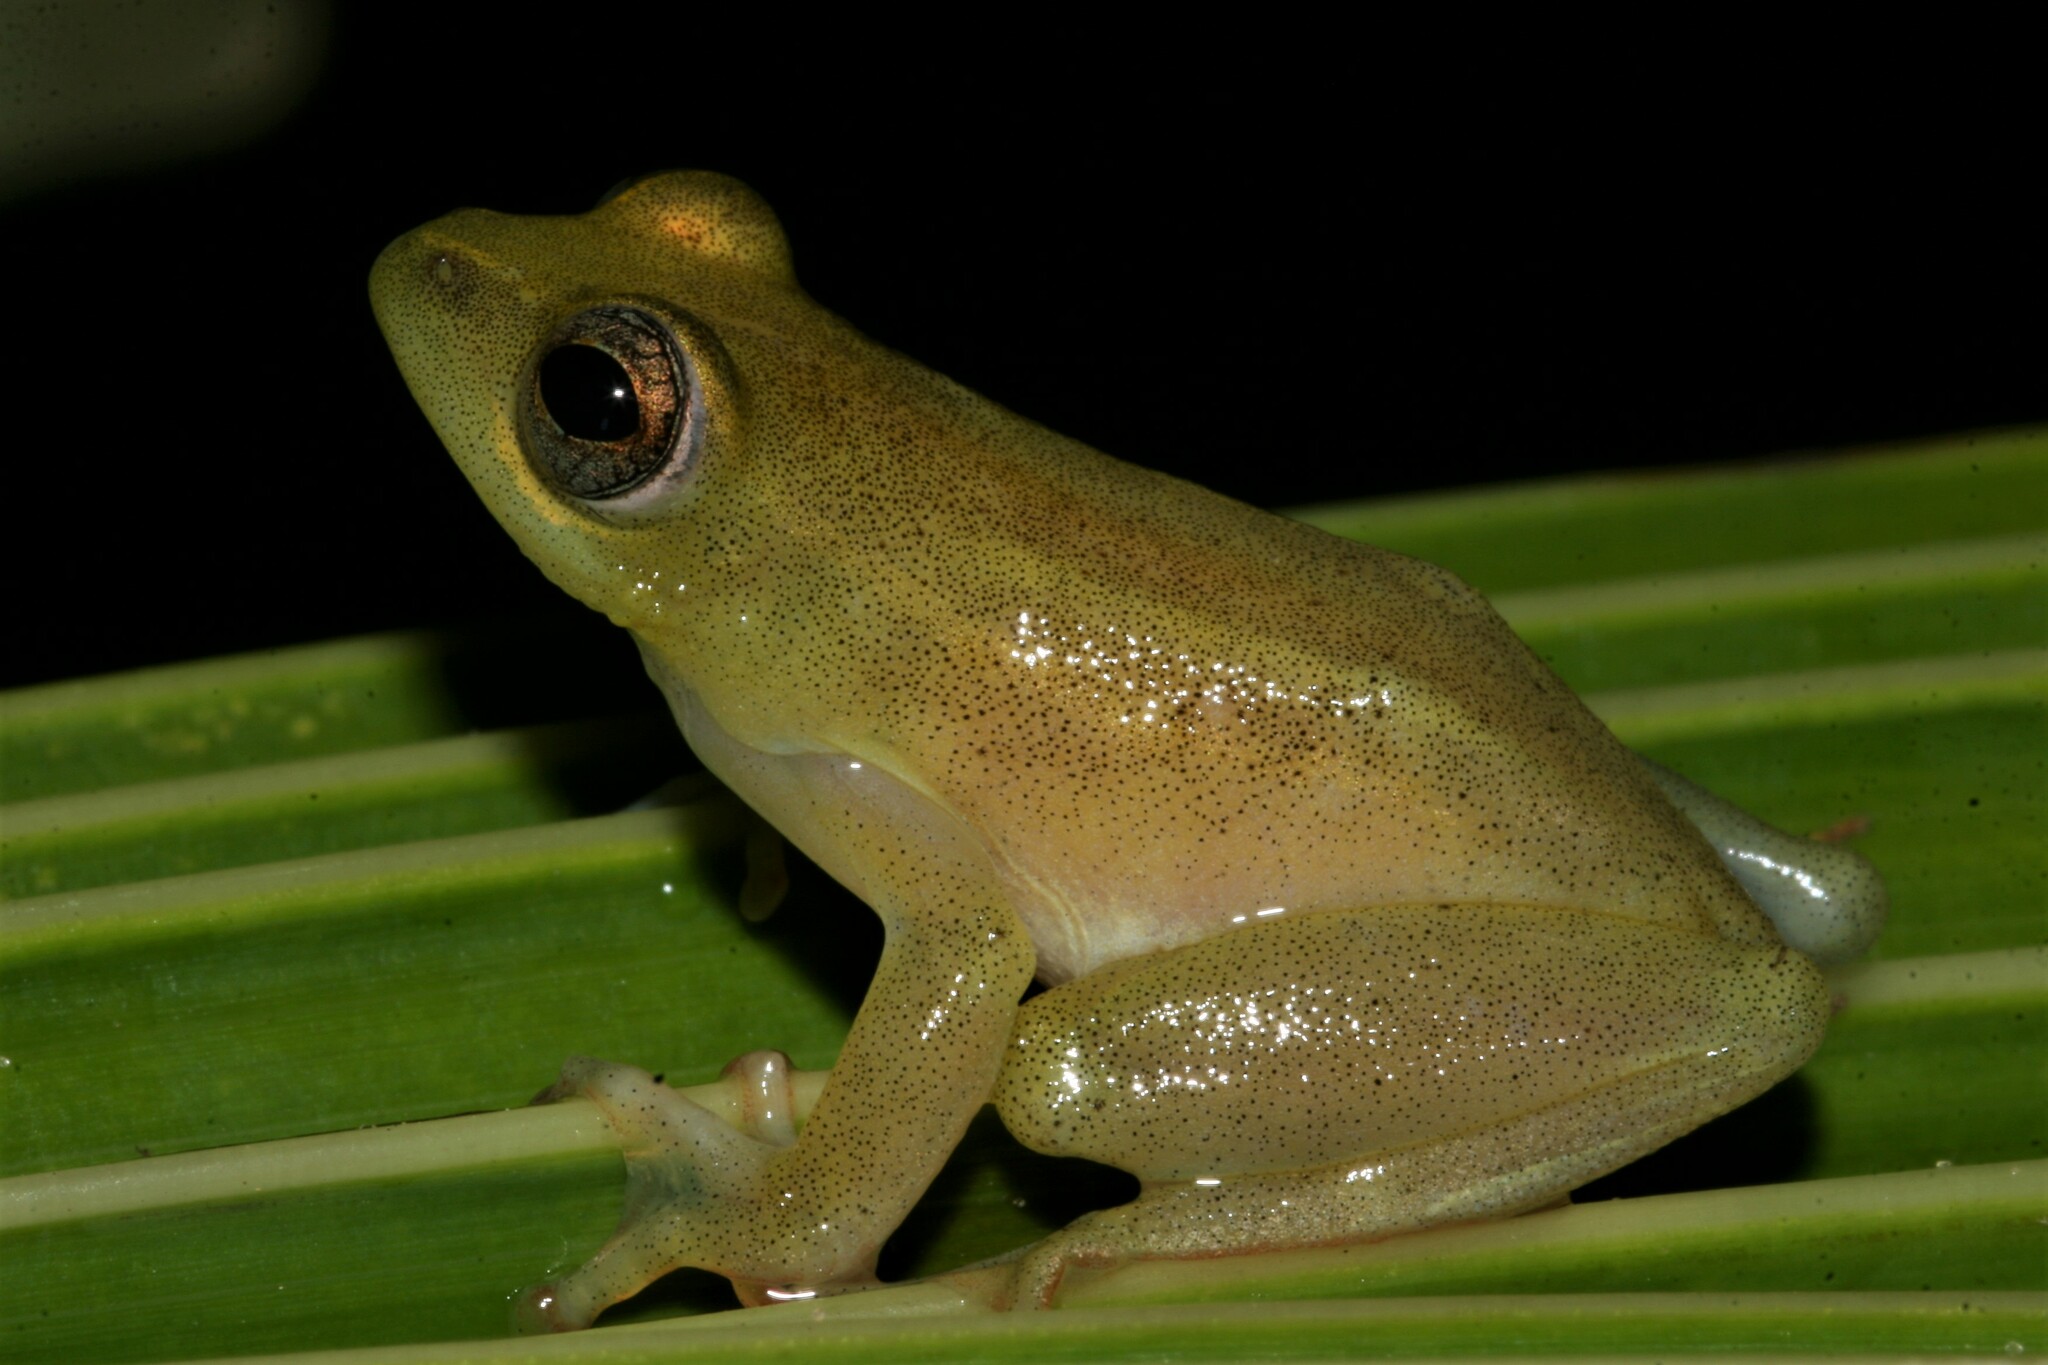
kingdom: Animalia
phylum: Chordata
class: Amphibia
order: Anura
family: Hyperoliidae
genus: Hyperolius
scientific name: Hyperolius pardalis
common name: Leopard reed frog
